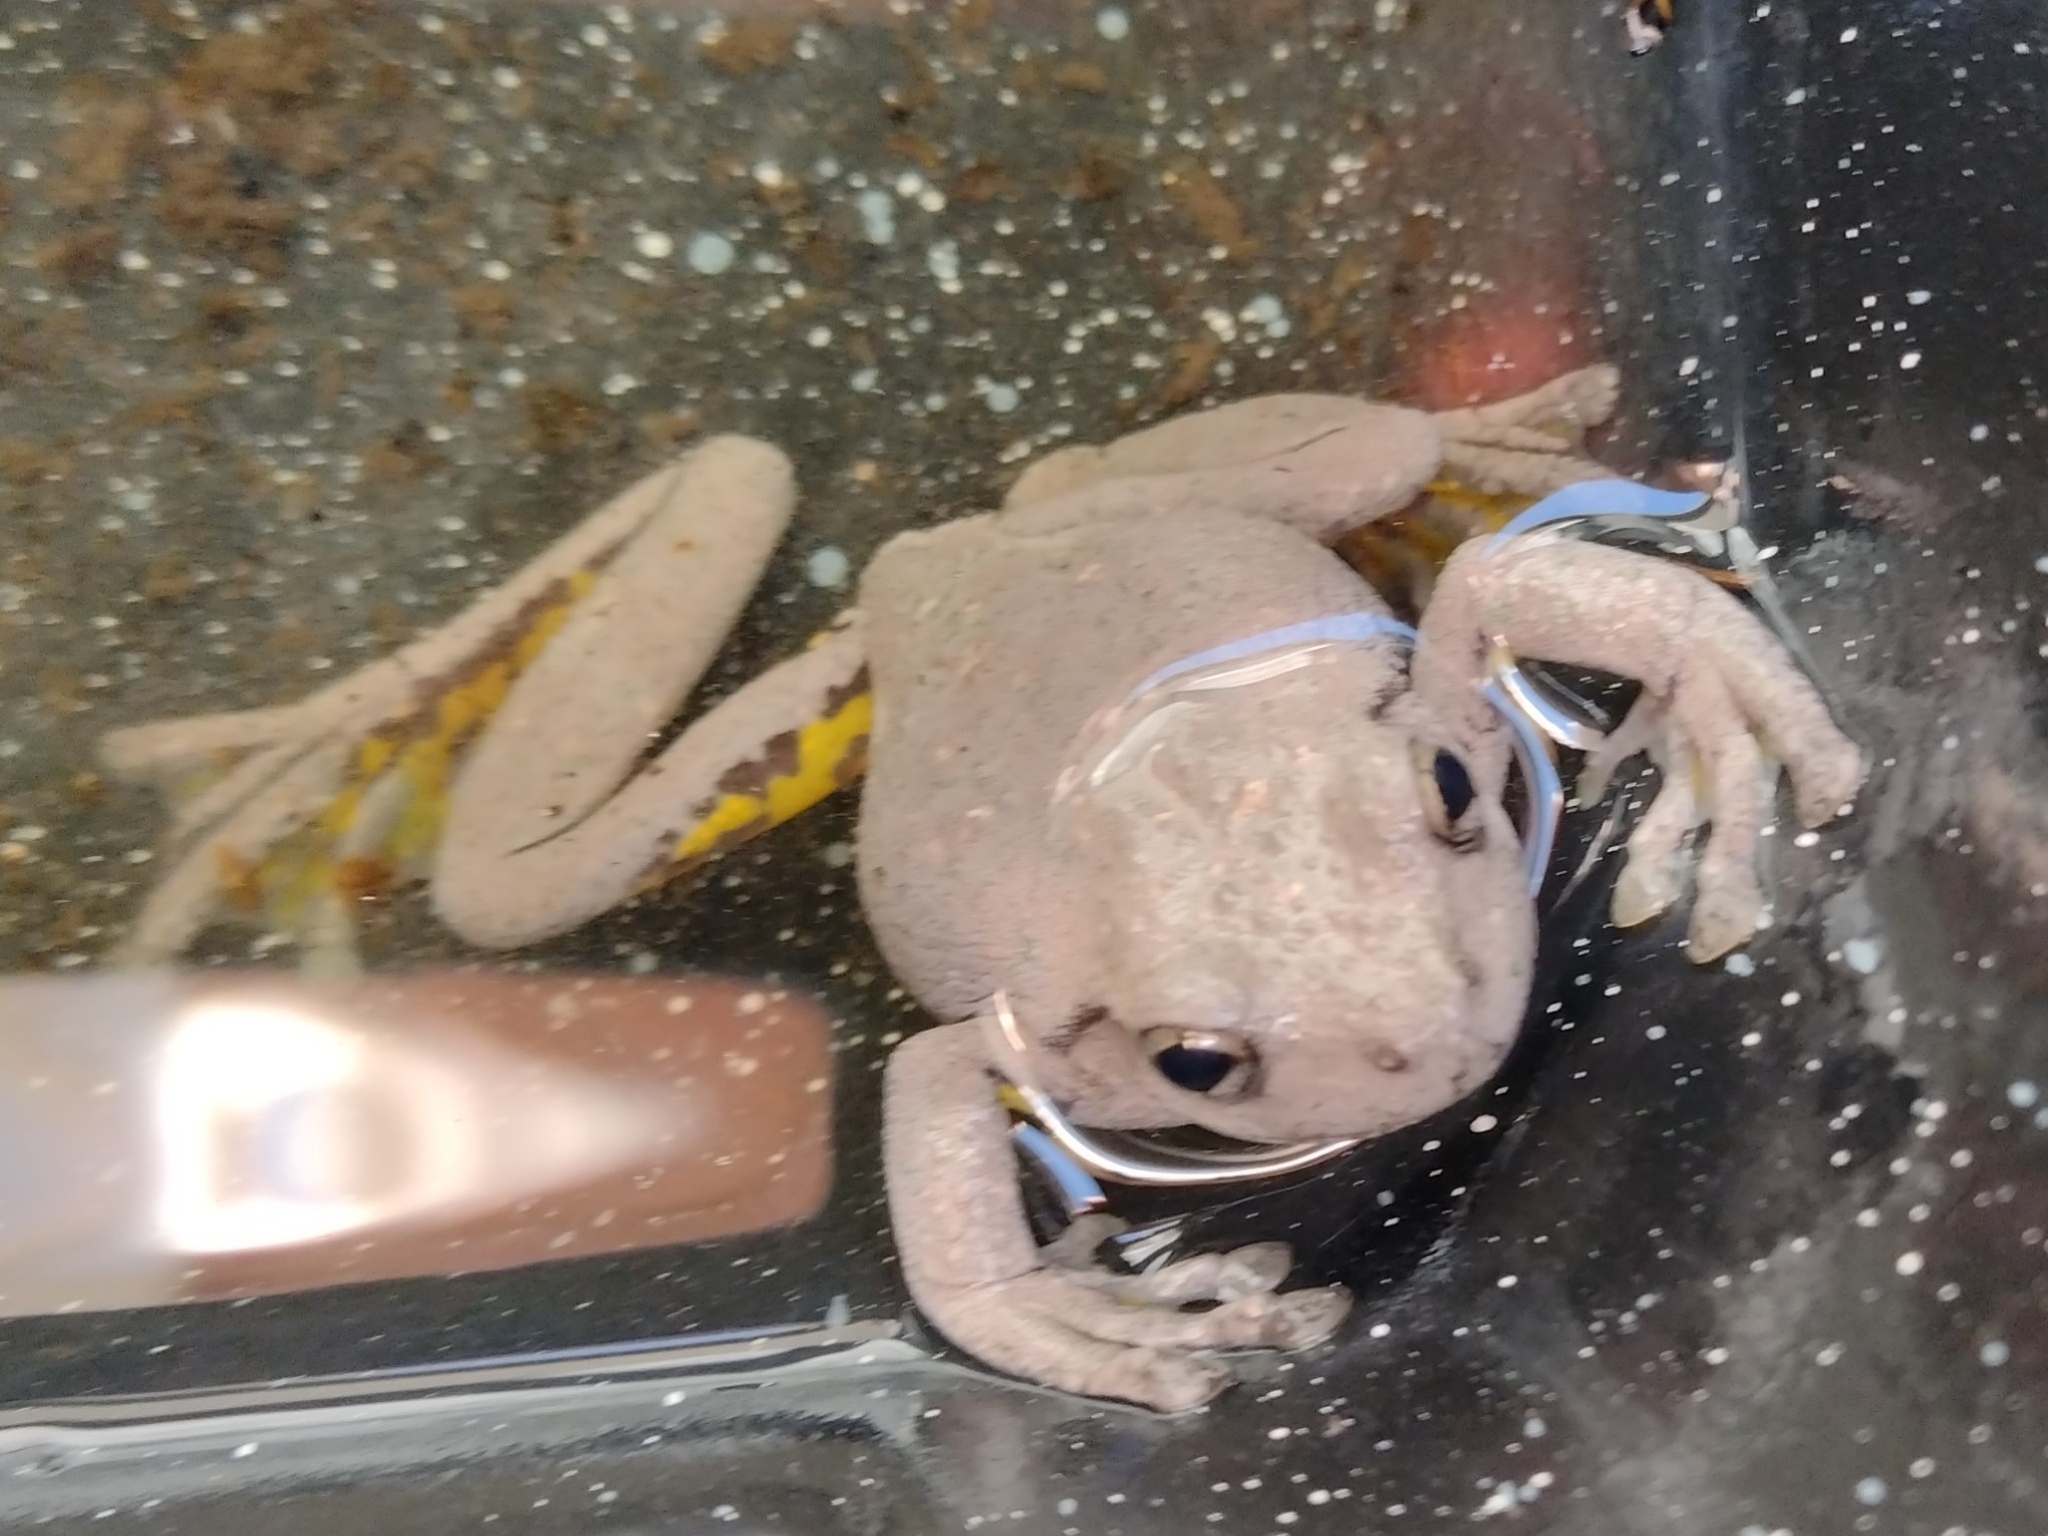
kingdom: Animalia
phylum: Chordata
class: Amphibia
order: Anura
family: Pelodryadidae
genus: Litoria
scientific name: Litoria peronii
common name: Emerald spotted treefrog
